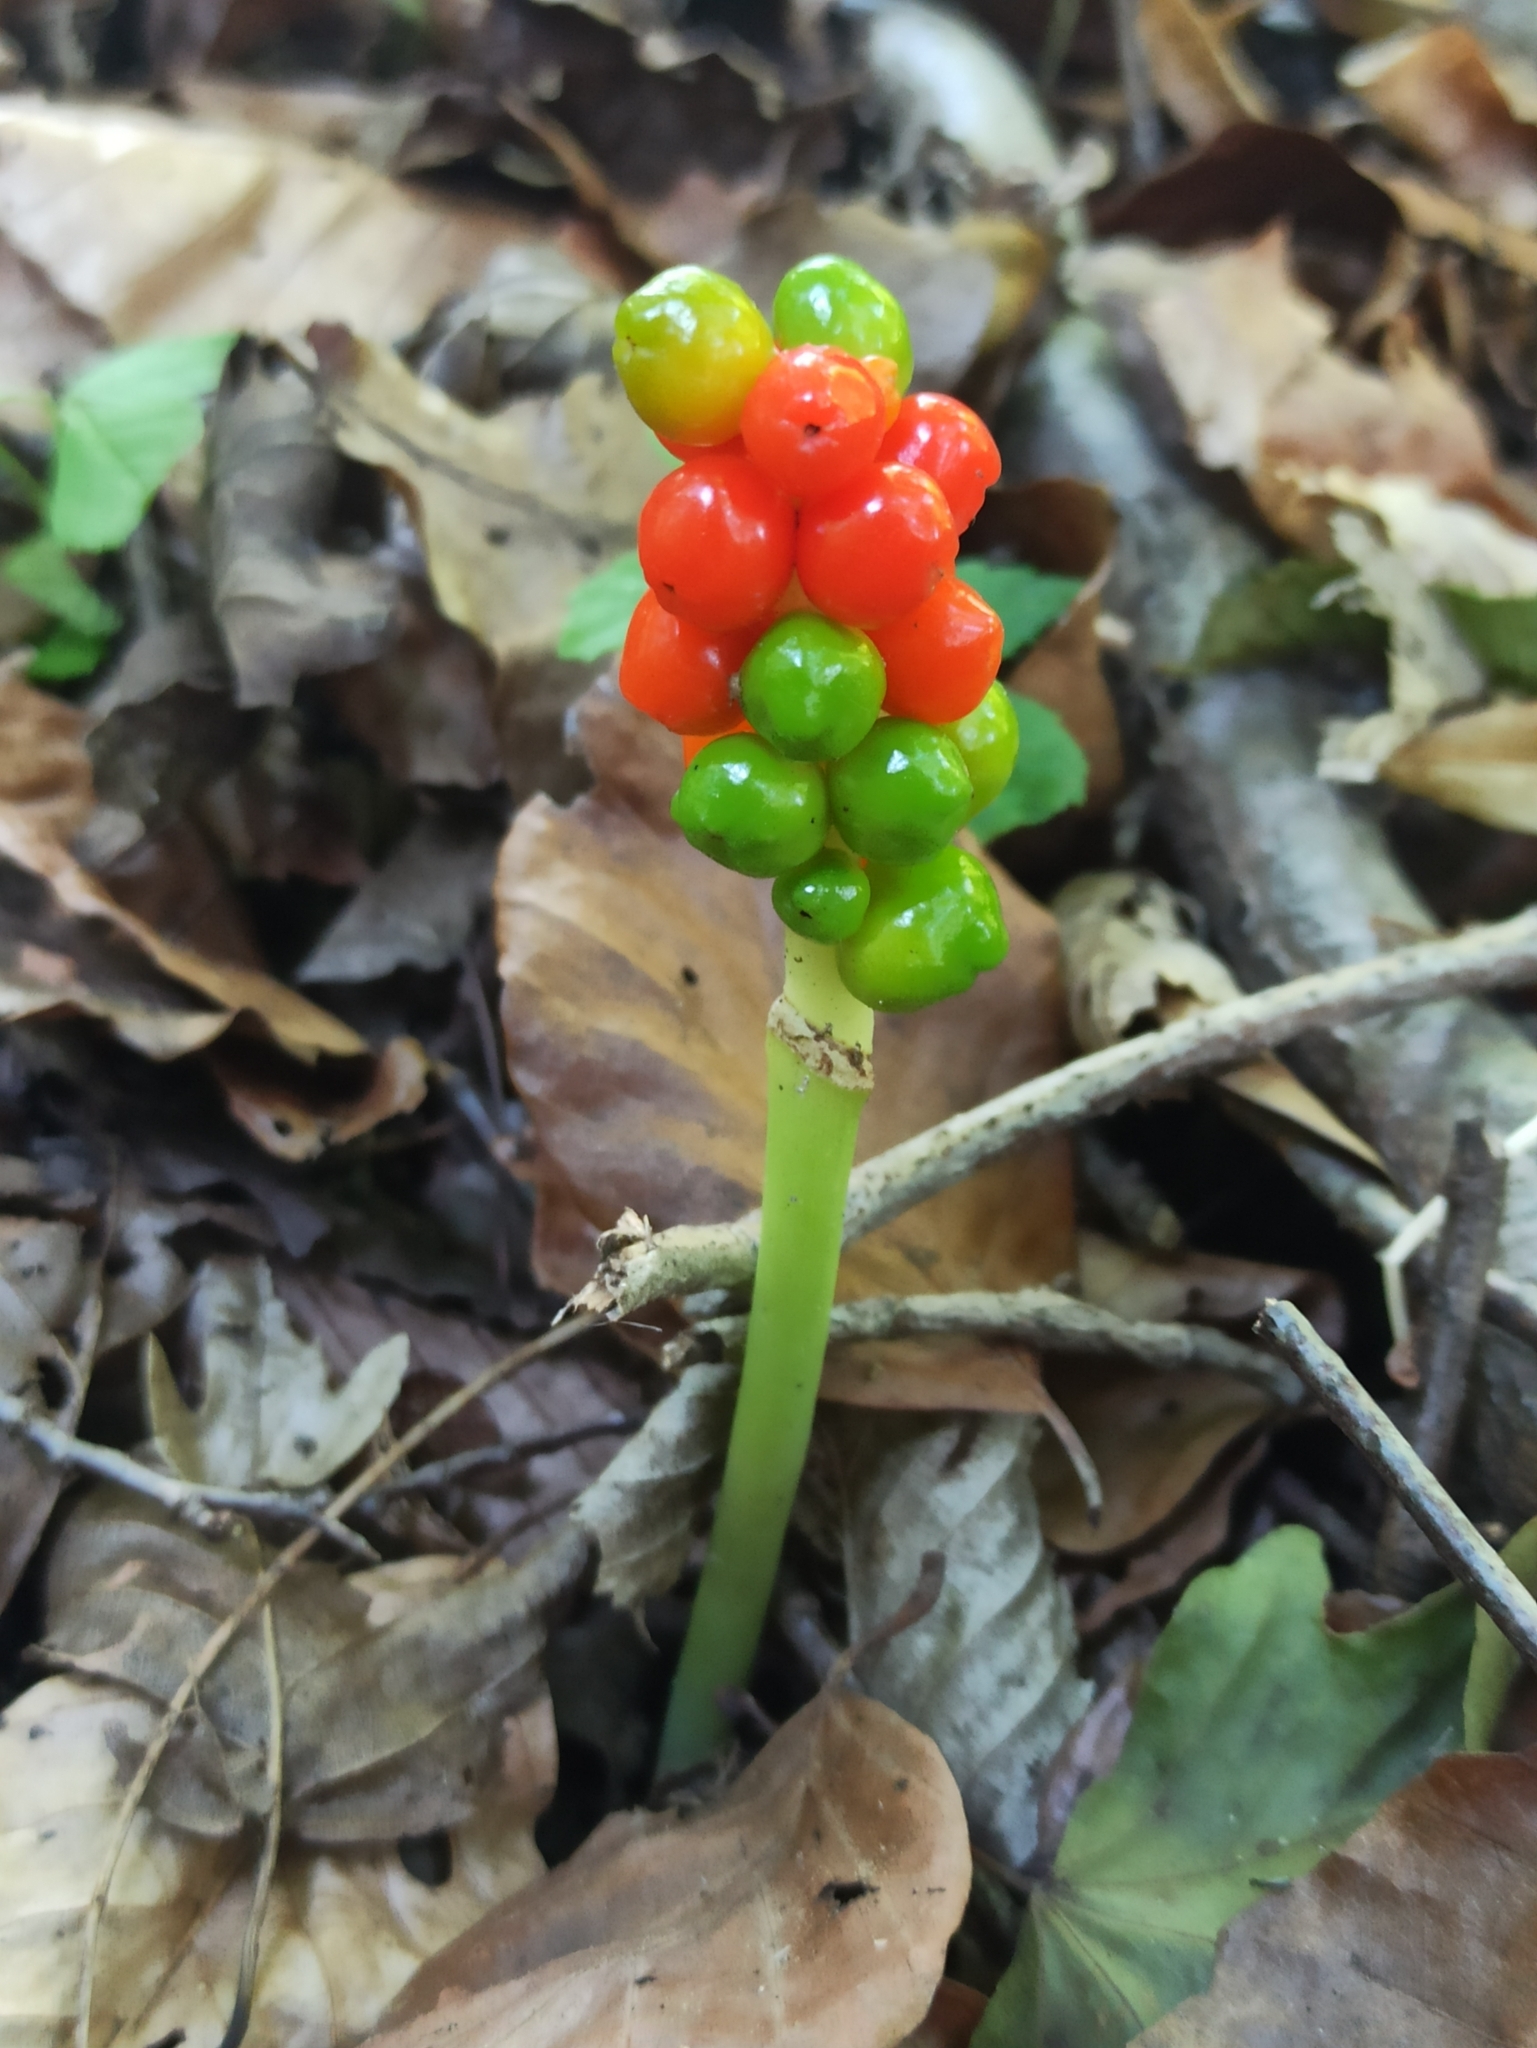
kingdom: Plantae
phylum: Tracheophyta
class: Liliopsida
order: Alismatales
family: Araceae
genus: Arum
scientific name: Arum maculatum
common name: Lords-and-ladies
